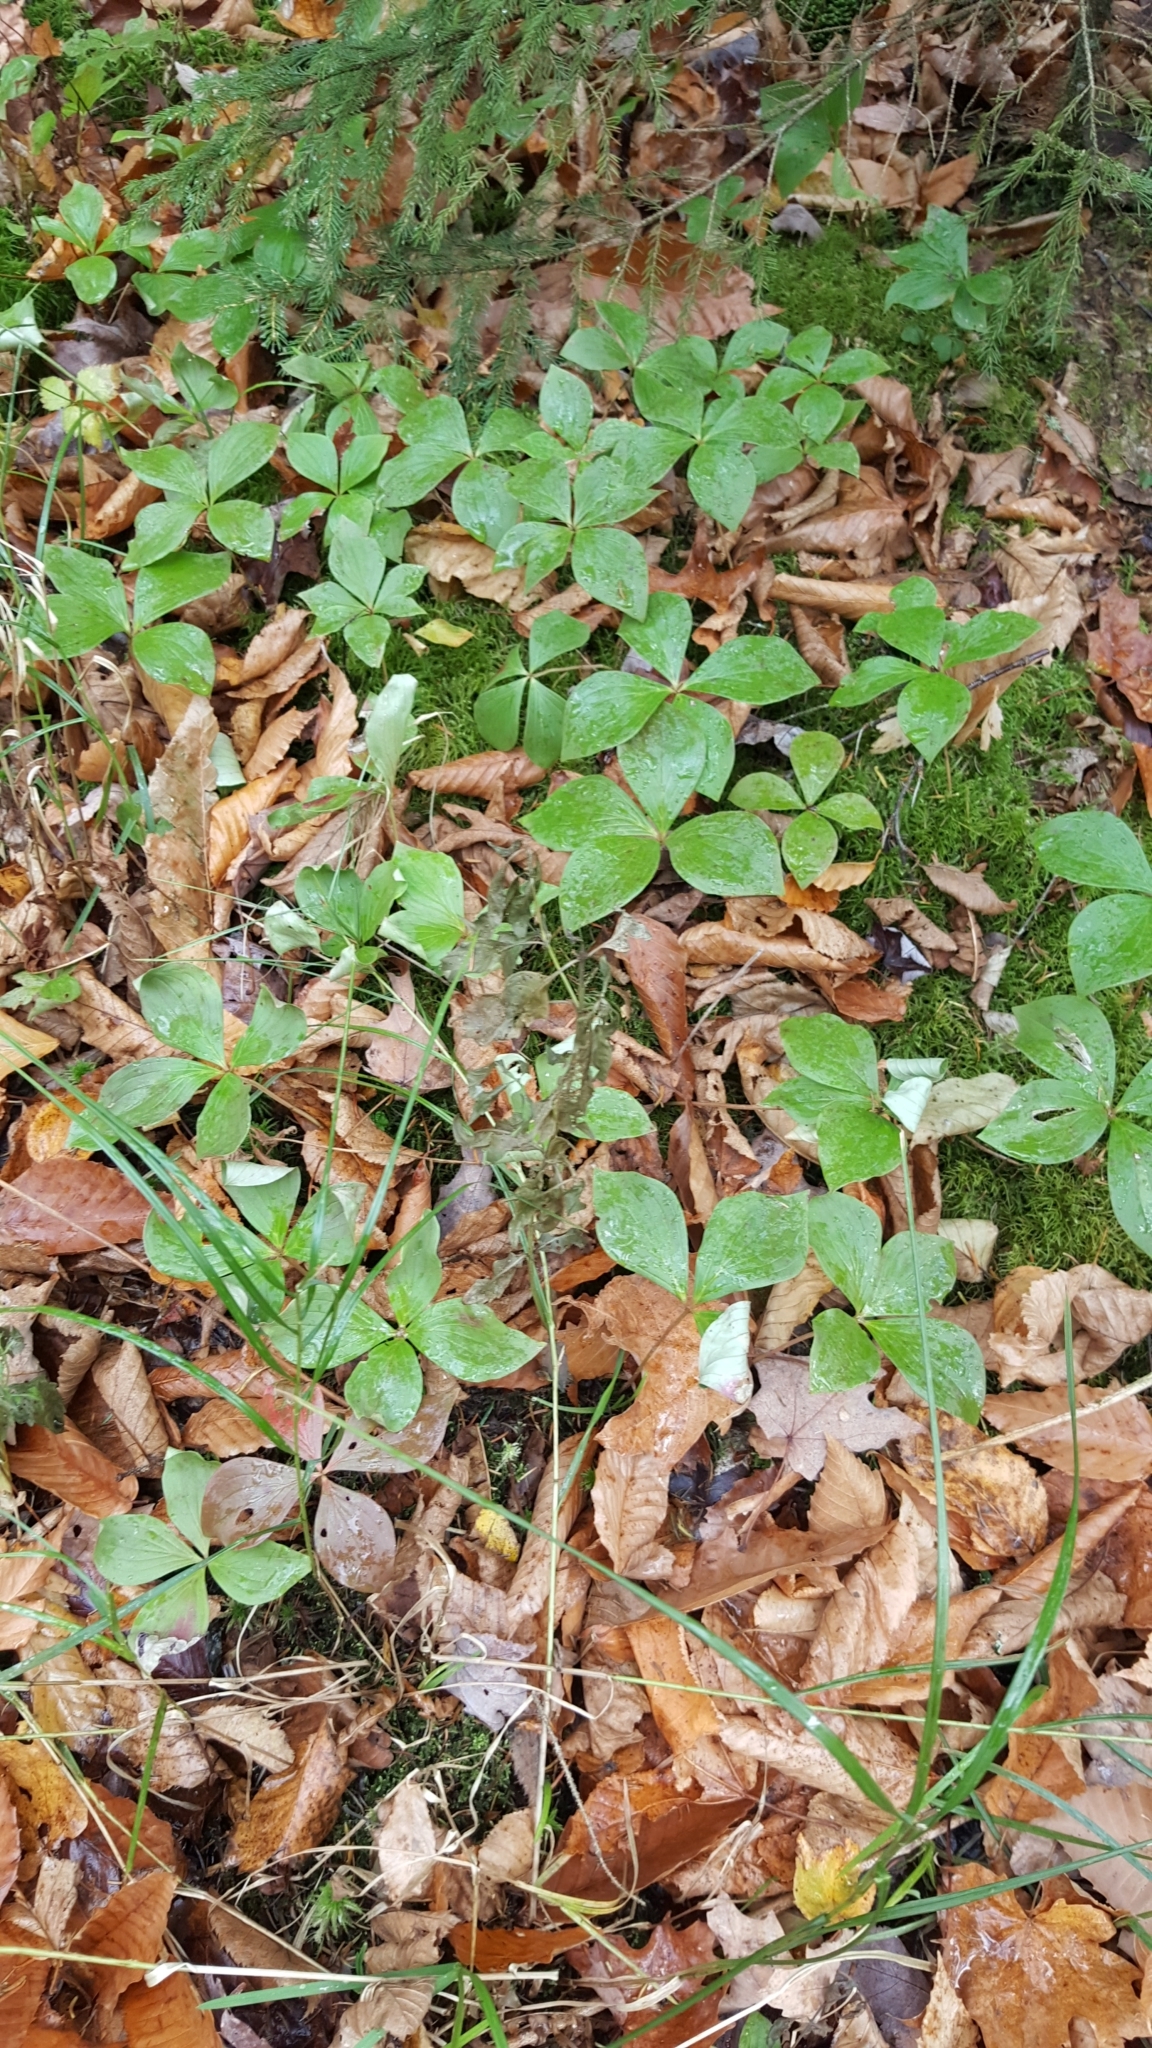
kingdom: Plantae
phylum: Tracheophyta
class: Magnoliopsida
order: Cornales
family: Cornaceae
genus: Cornus
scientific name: Cornus canadensis
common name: Creeping dogwood
